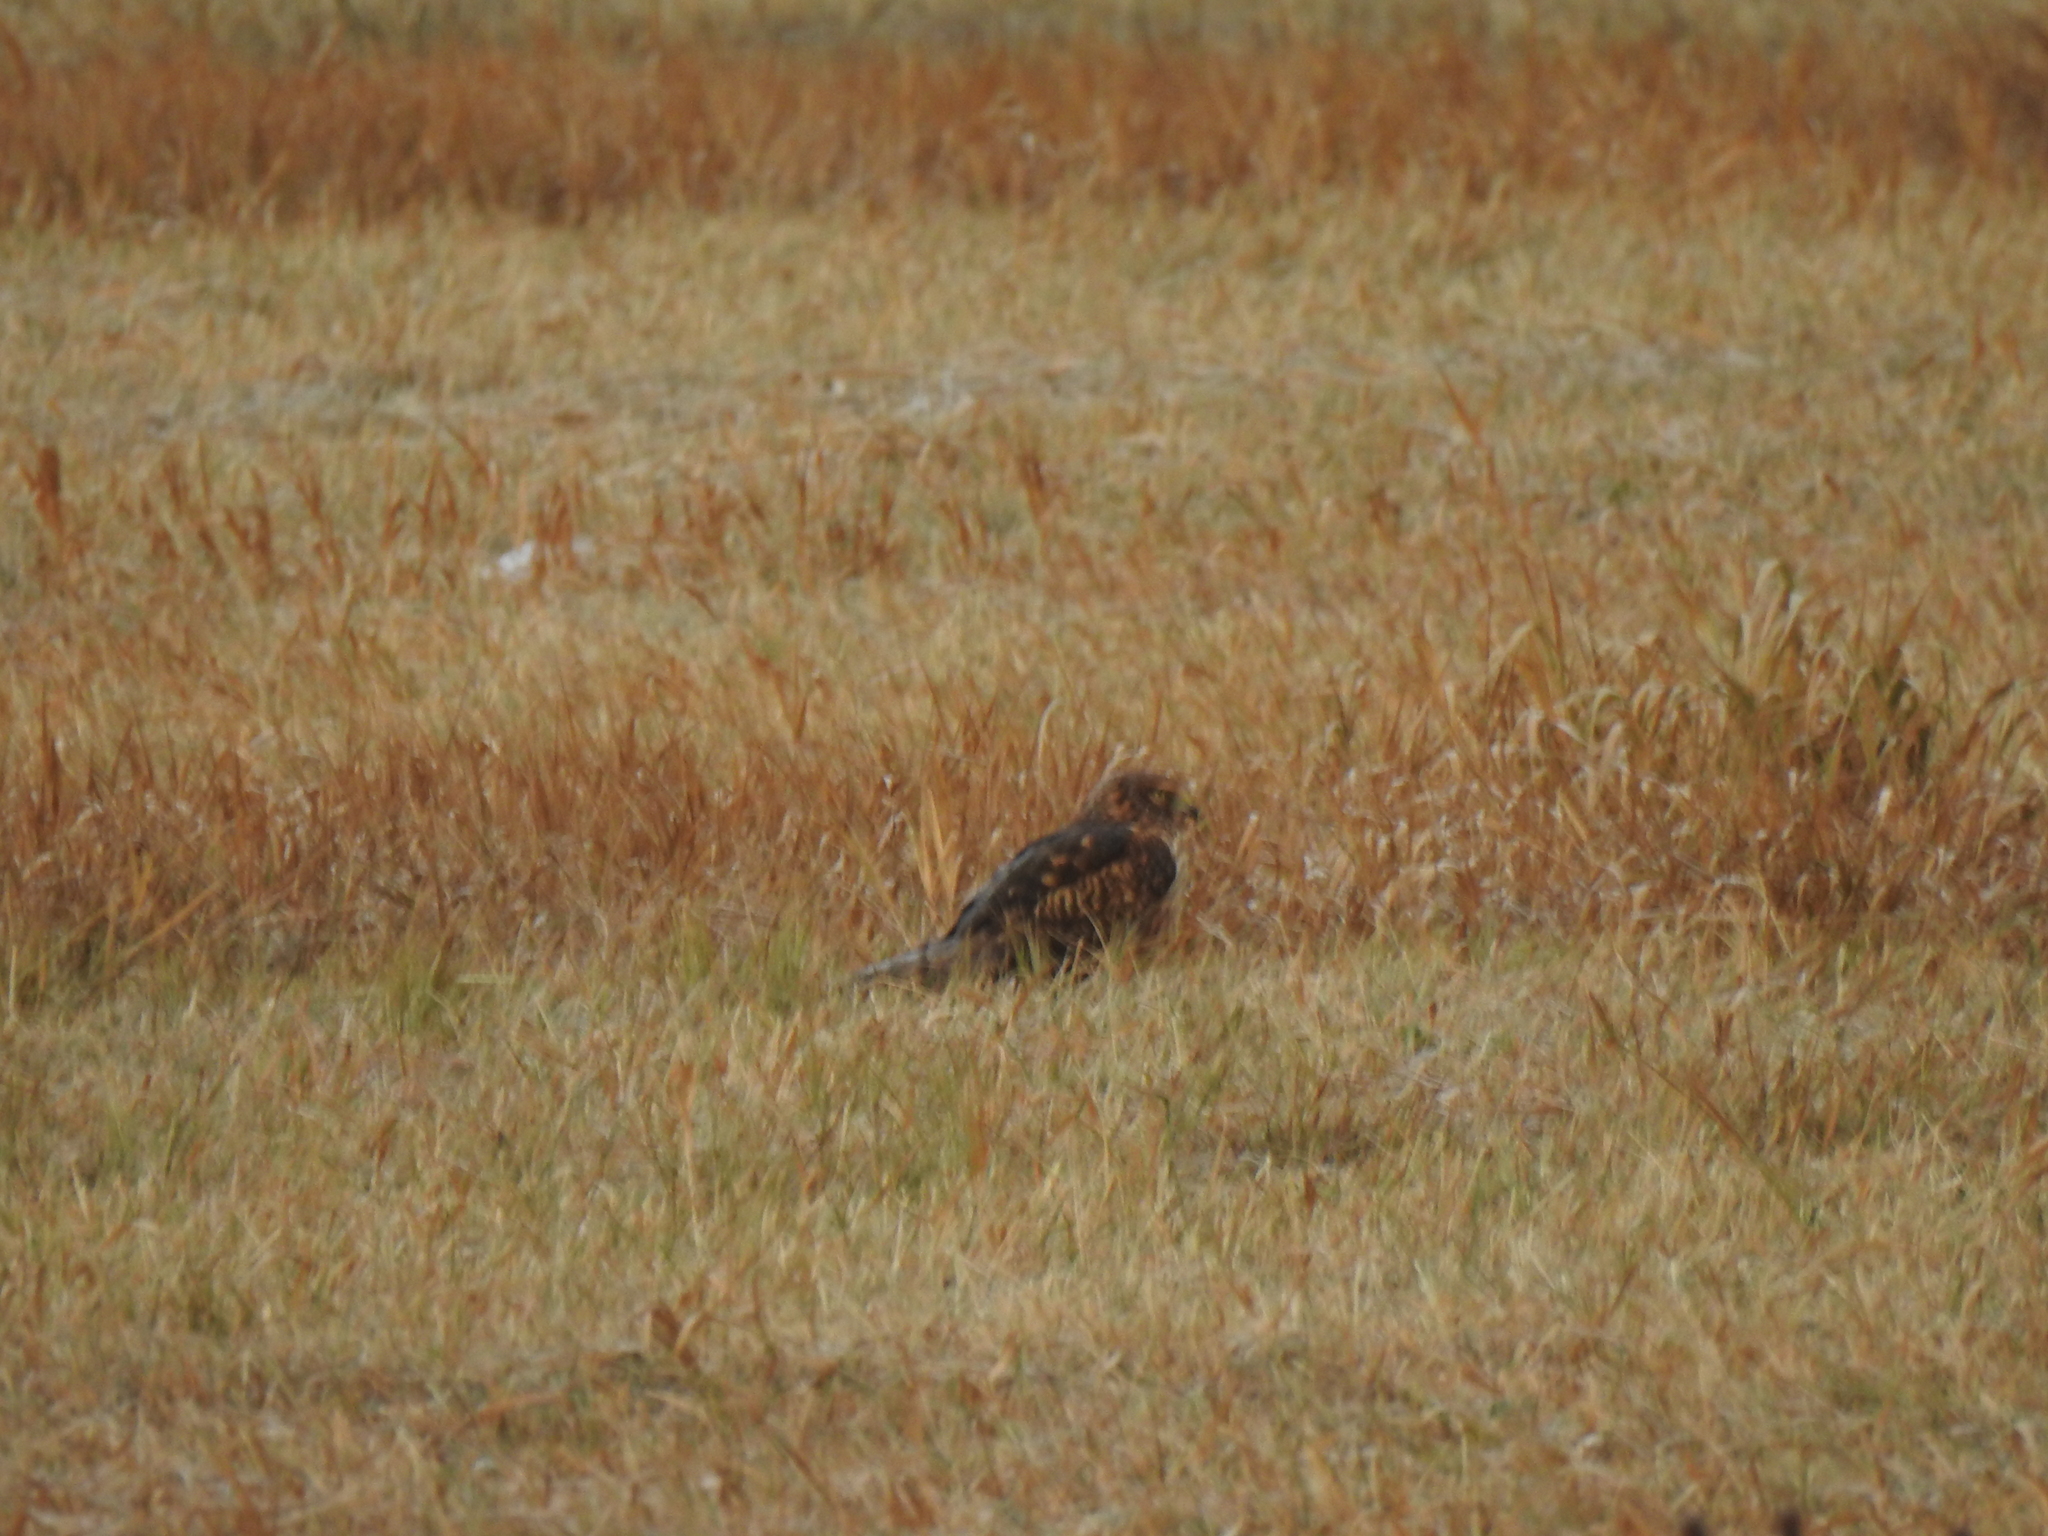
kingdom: Animalia
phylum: Chordata
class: Aves
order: Accipitriformes
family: Accipitridae
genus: Circus
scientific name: Circus cyaneus
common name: Hen harrier
